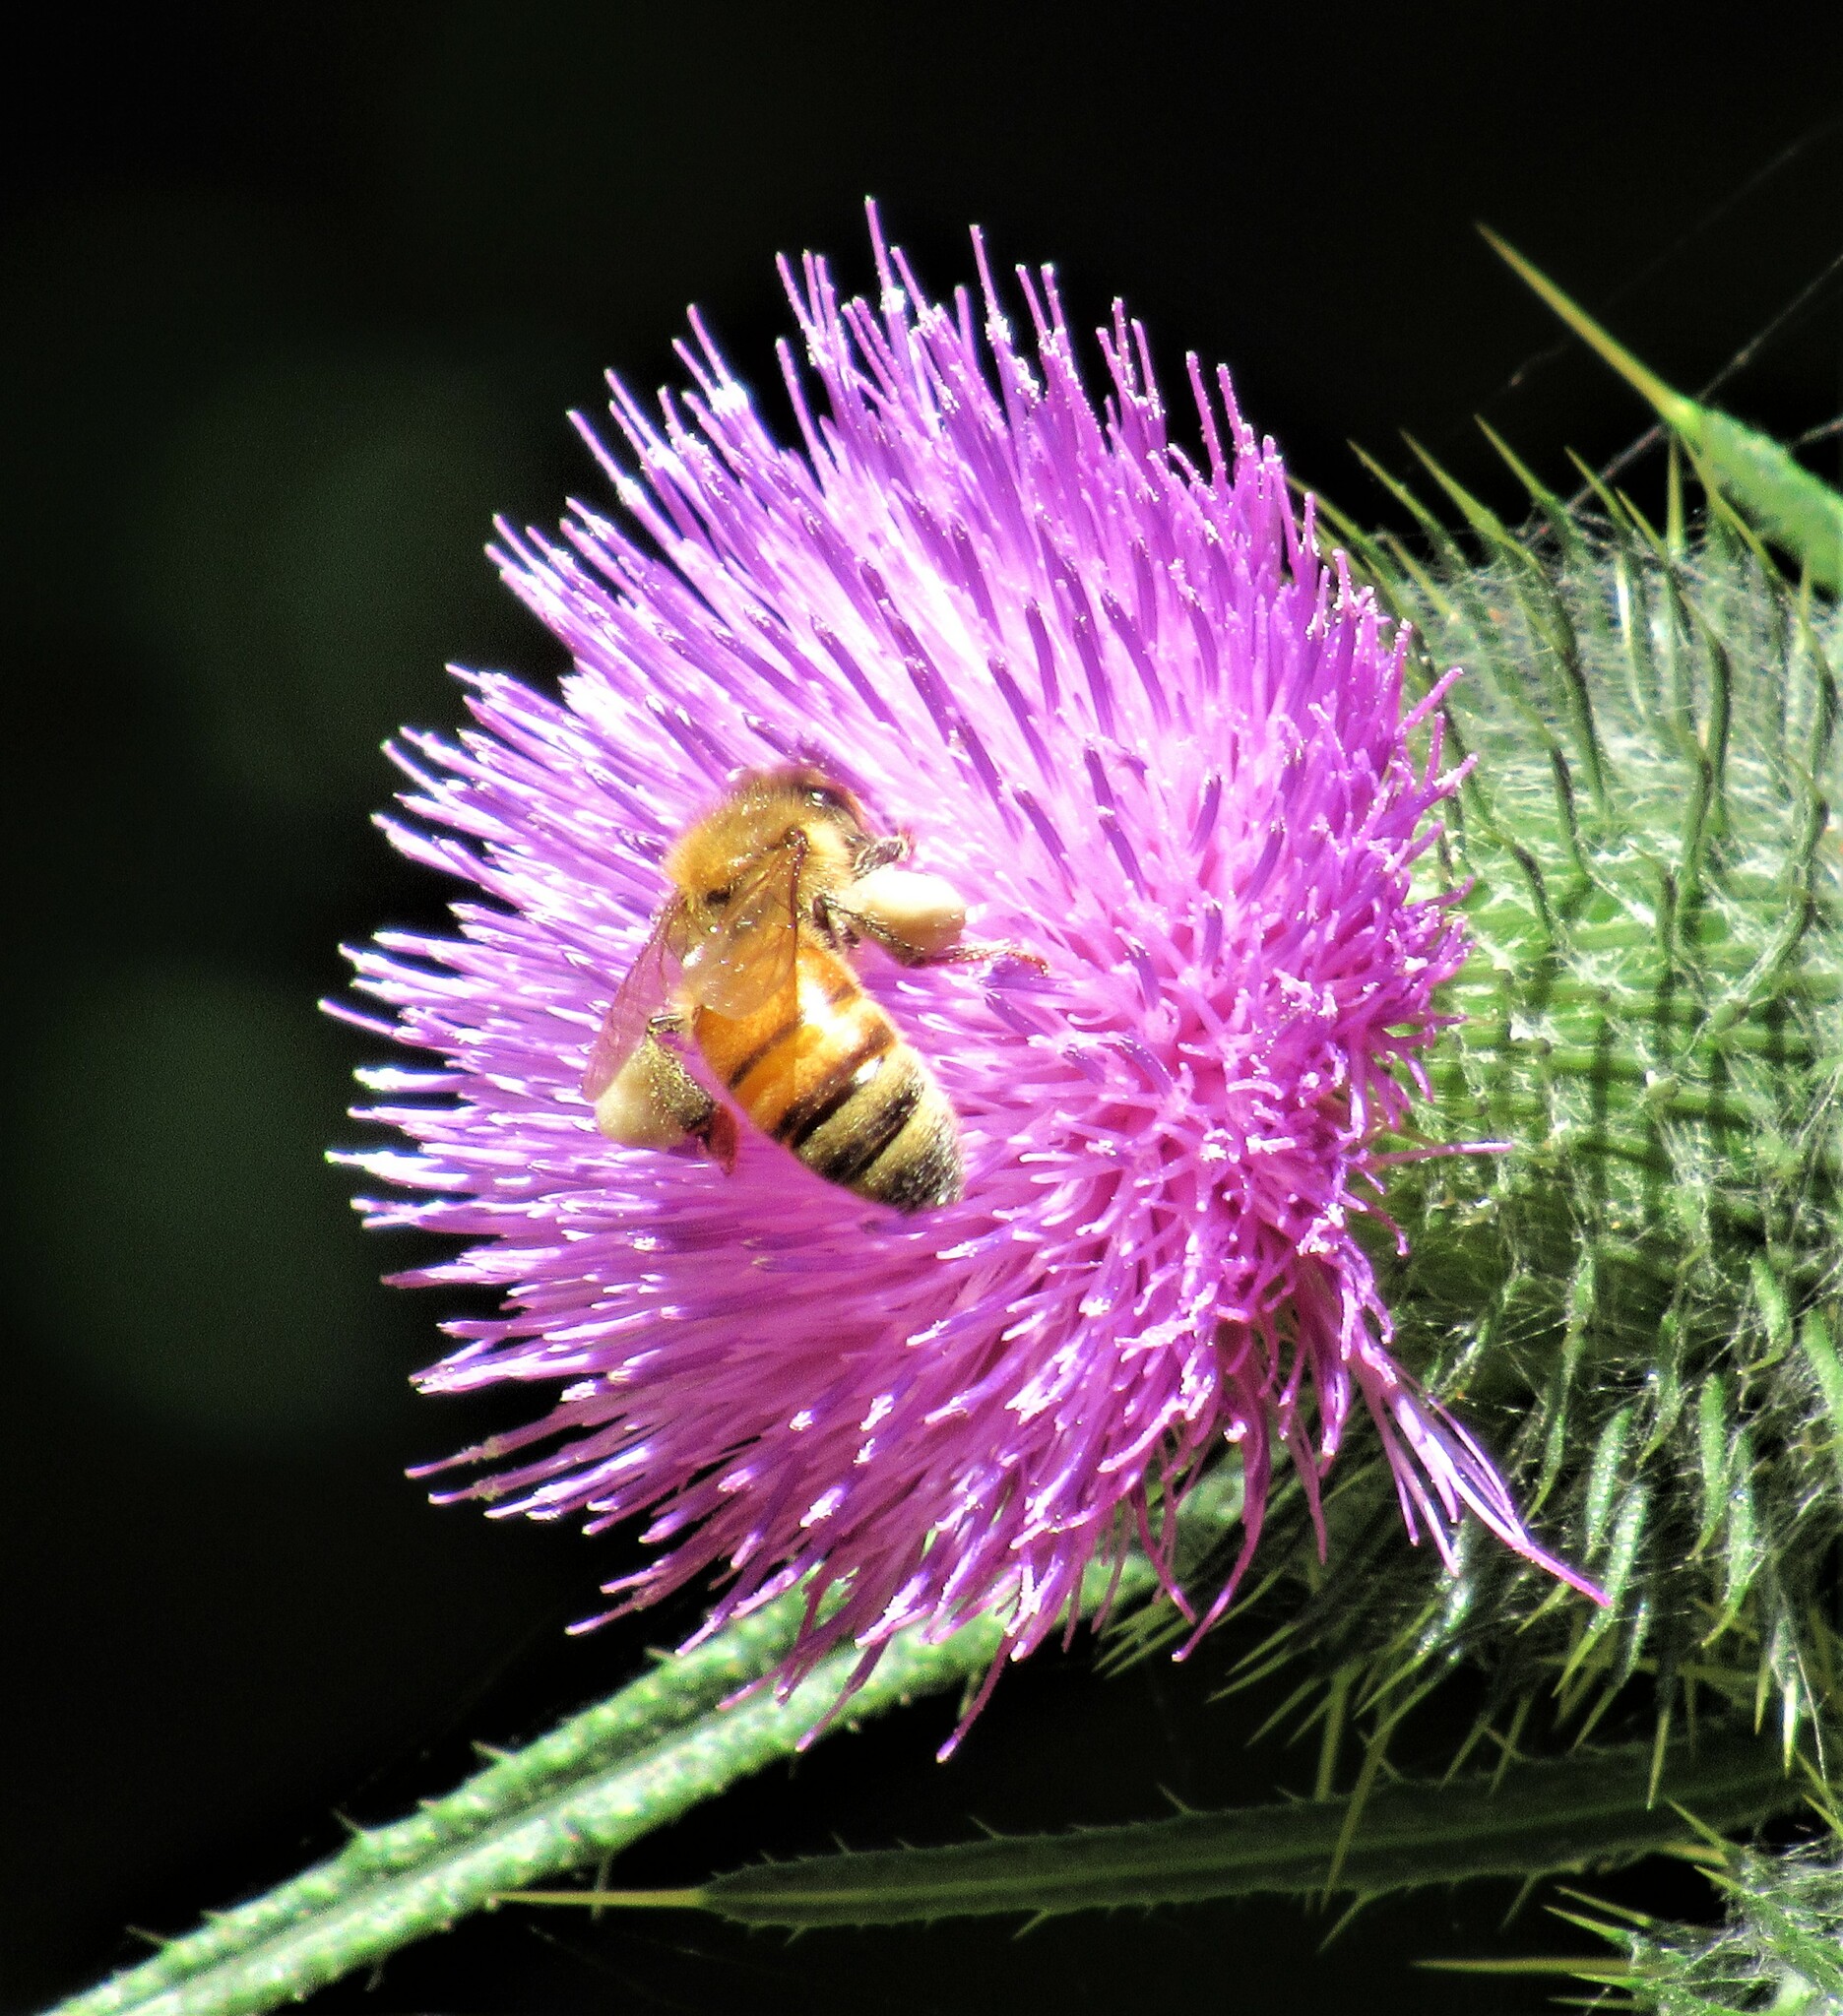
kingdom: Animalia
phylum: Arthropoda
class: Insecta
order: Hymenoptera
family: Apidae
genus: Apis
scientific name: Apis mellifera
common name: Honey bee
